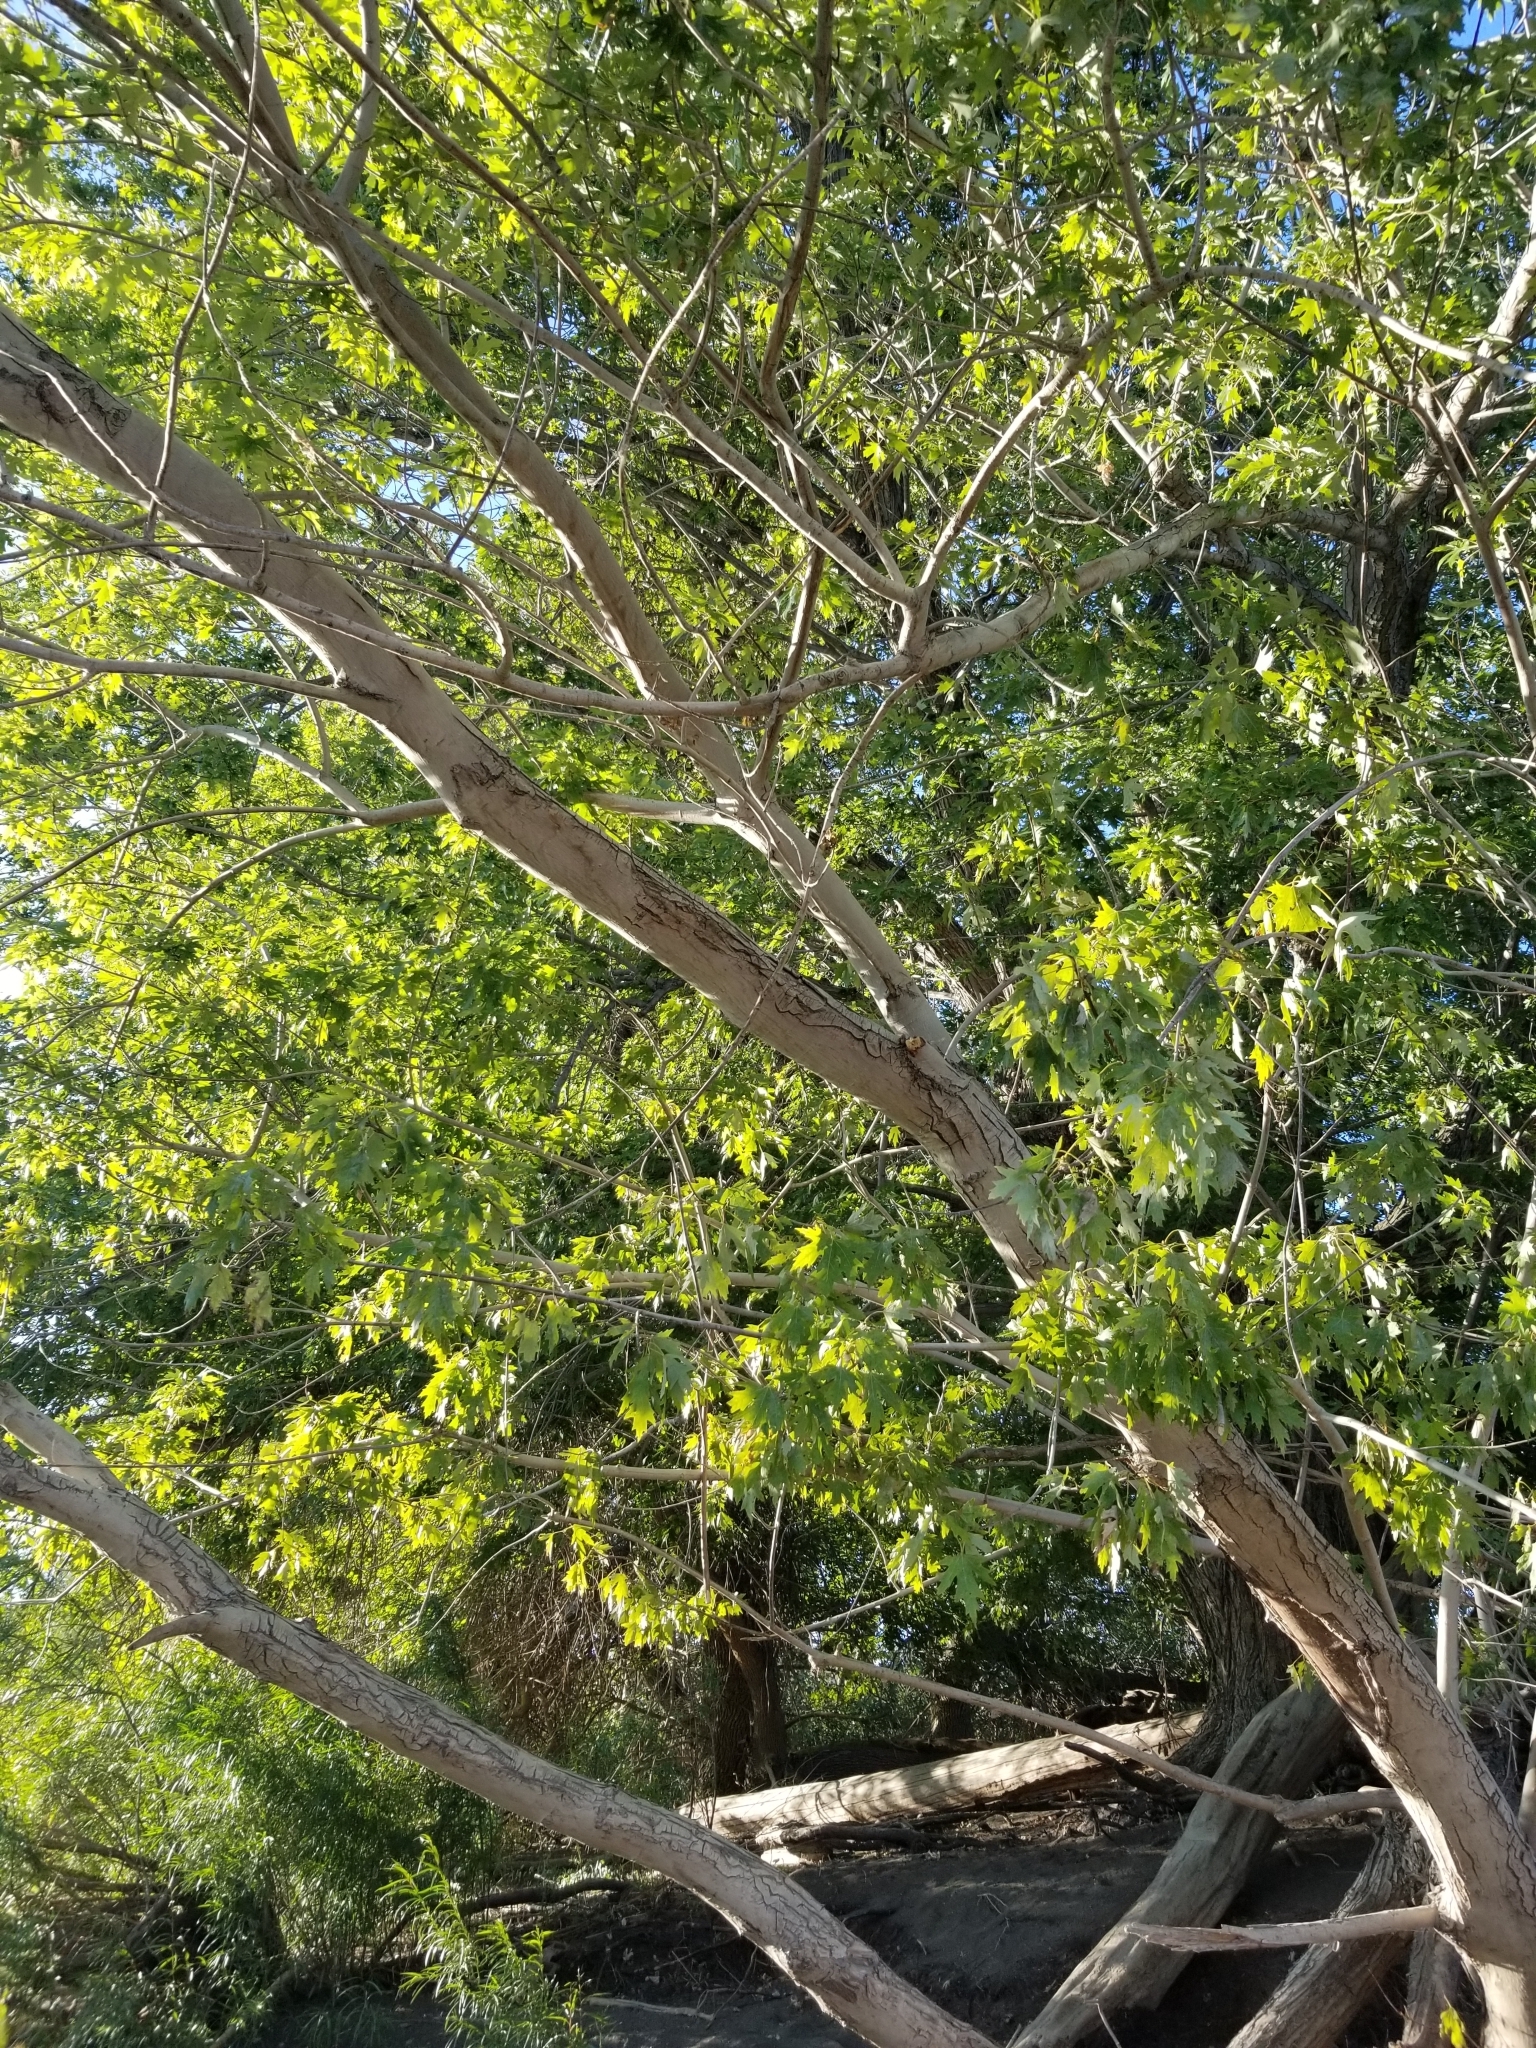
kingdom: Plantae
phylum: Tracheophyta
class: Magnoliopsida
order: Sapindales
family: Sapindaceae
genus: Acer
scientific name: Acer saccharinum
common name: Silver maple
